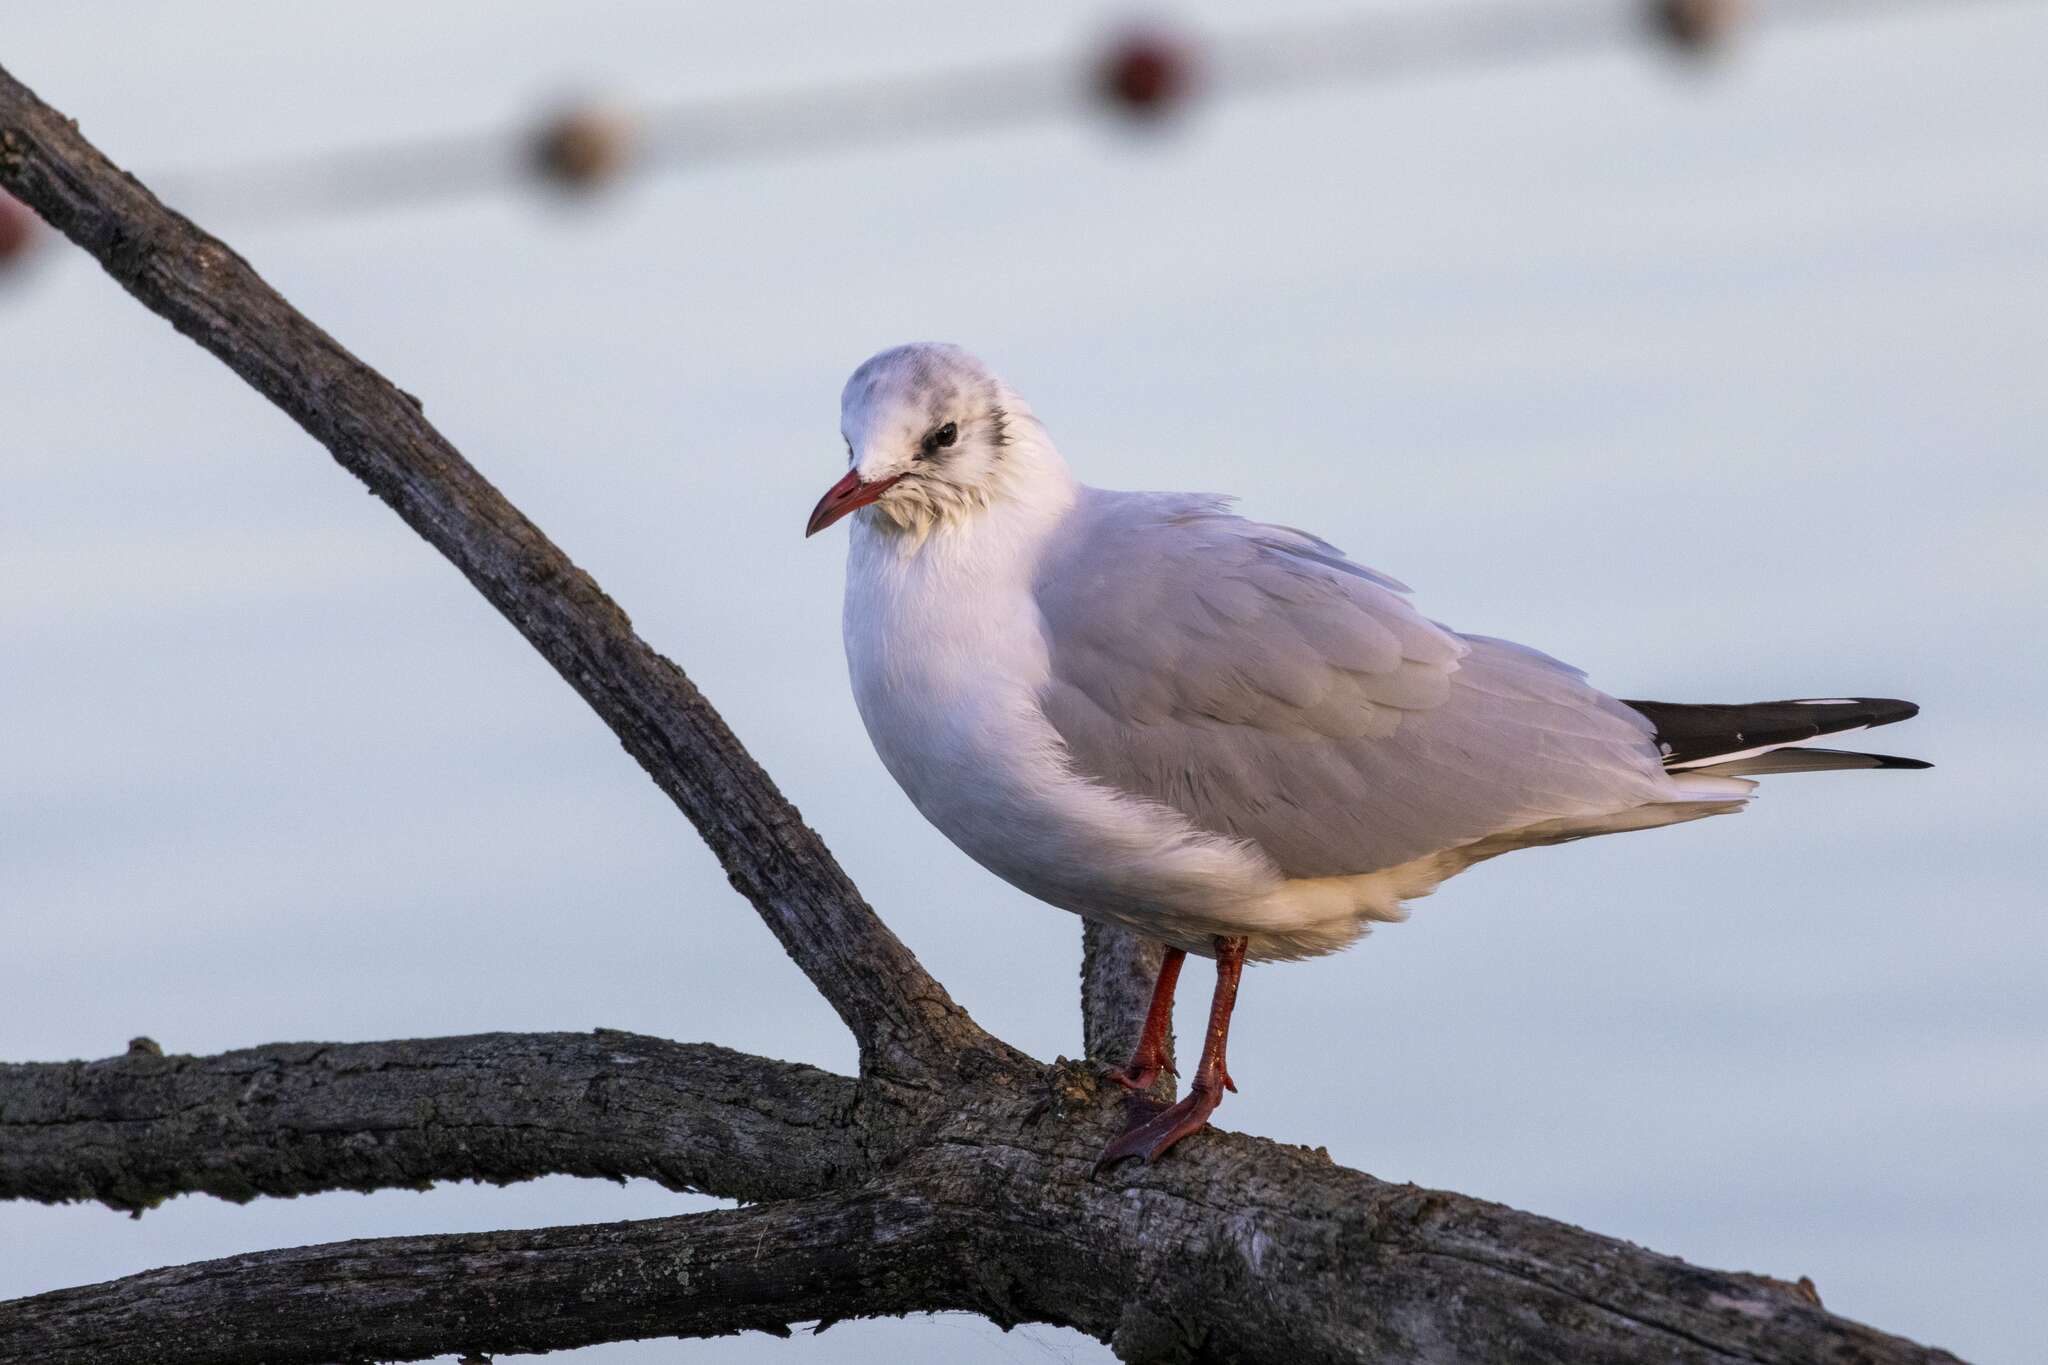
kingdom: Animalia
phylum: Chordata
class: Aves
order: Charadriiformes
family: Laridae
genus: Chroicocephalus
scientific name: Chroicocephalus ridibundus
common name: Black-headed gull
